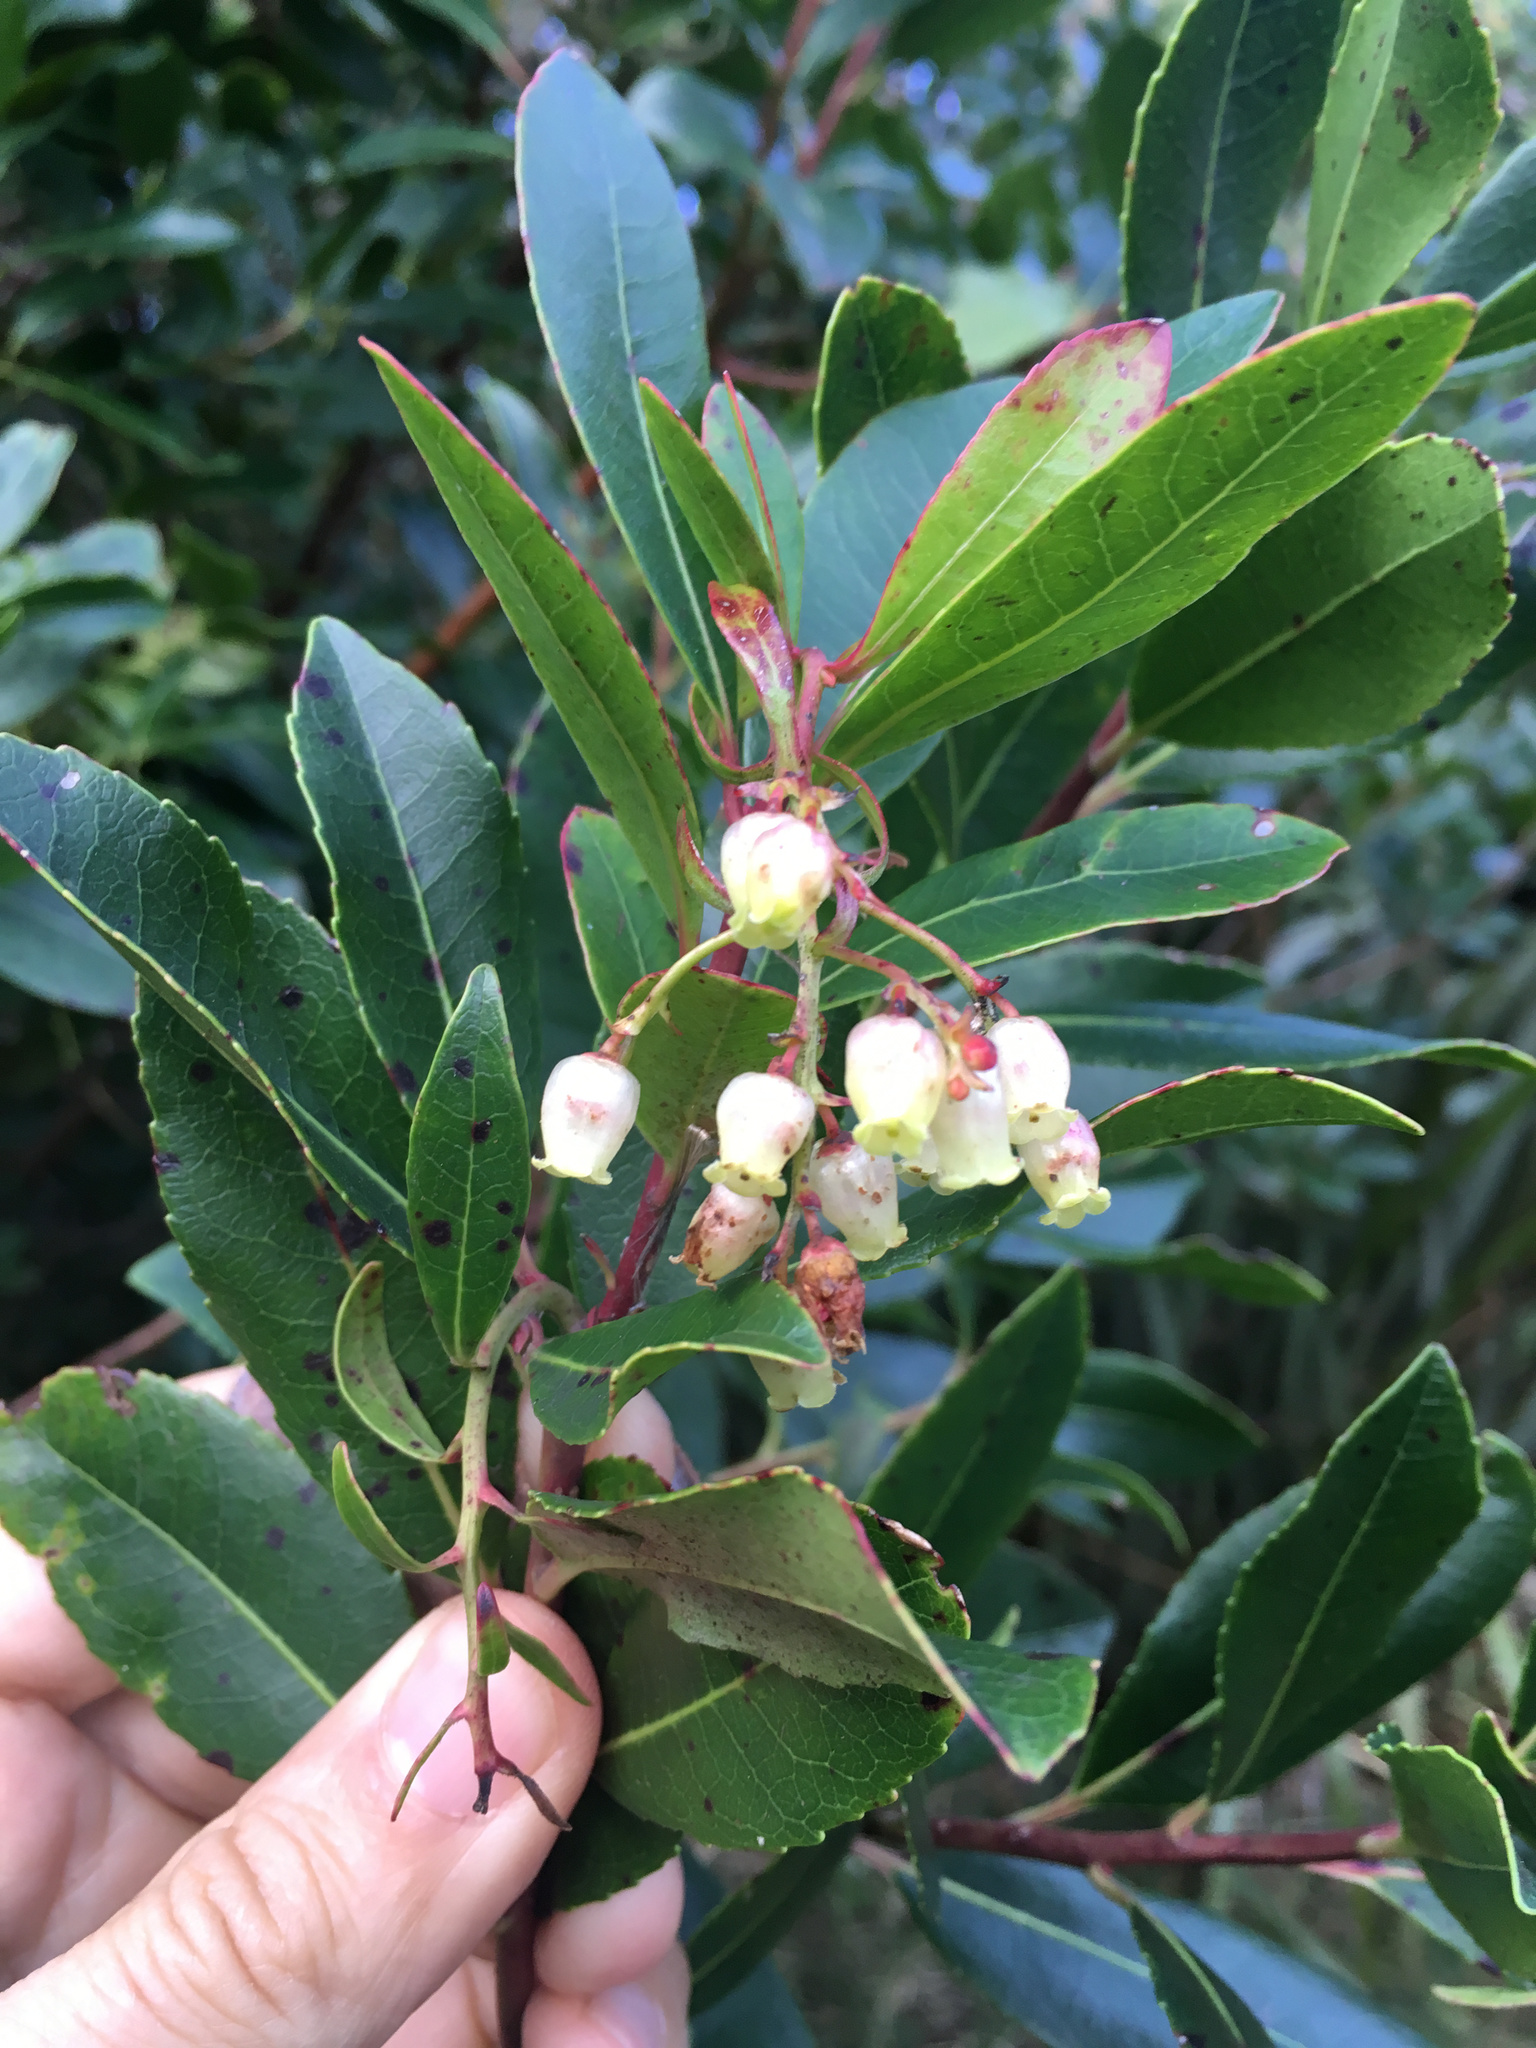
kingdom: Plantae
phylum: Tracheophyta
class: Magnoliopsida
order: Ericales
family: Ericaceae
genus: Arbutus
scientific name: Arbutus unedo
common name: Strawberry-tree
